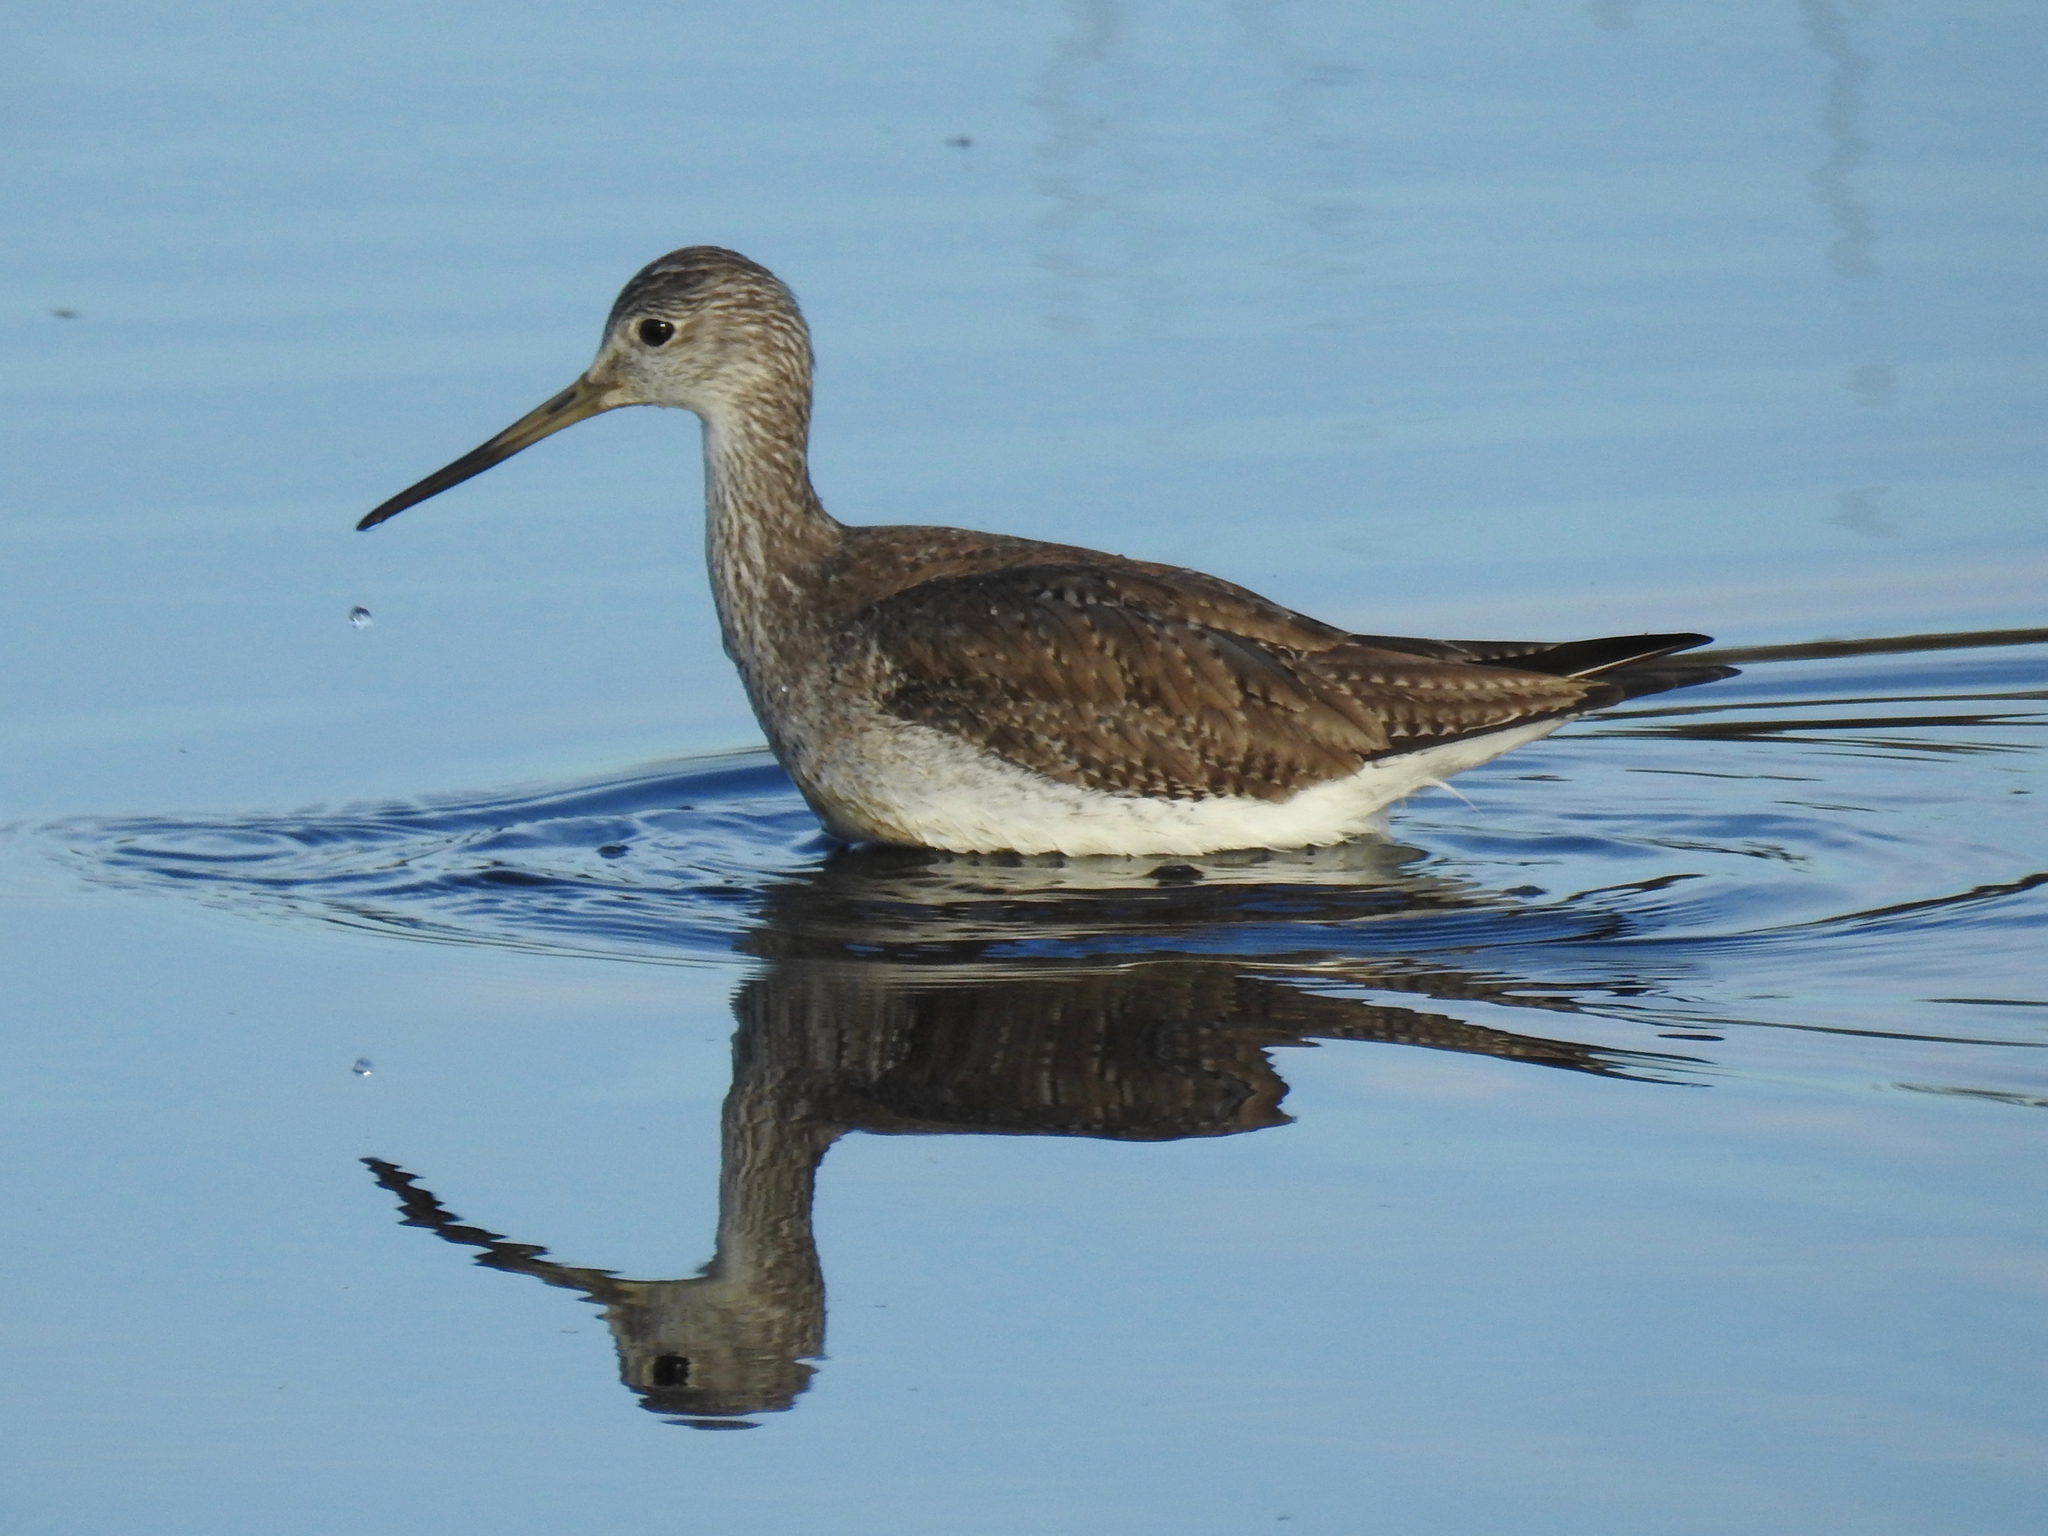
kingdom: Animalia
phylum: Chordata
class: Aves
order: Charadriiformes
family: Scolopacidae
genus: Tringa
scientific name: Tringa melanoleuca
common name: Greater yellowlegs
